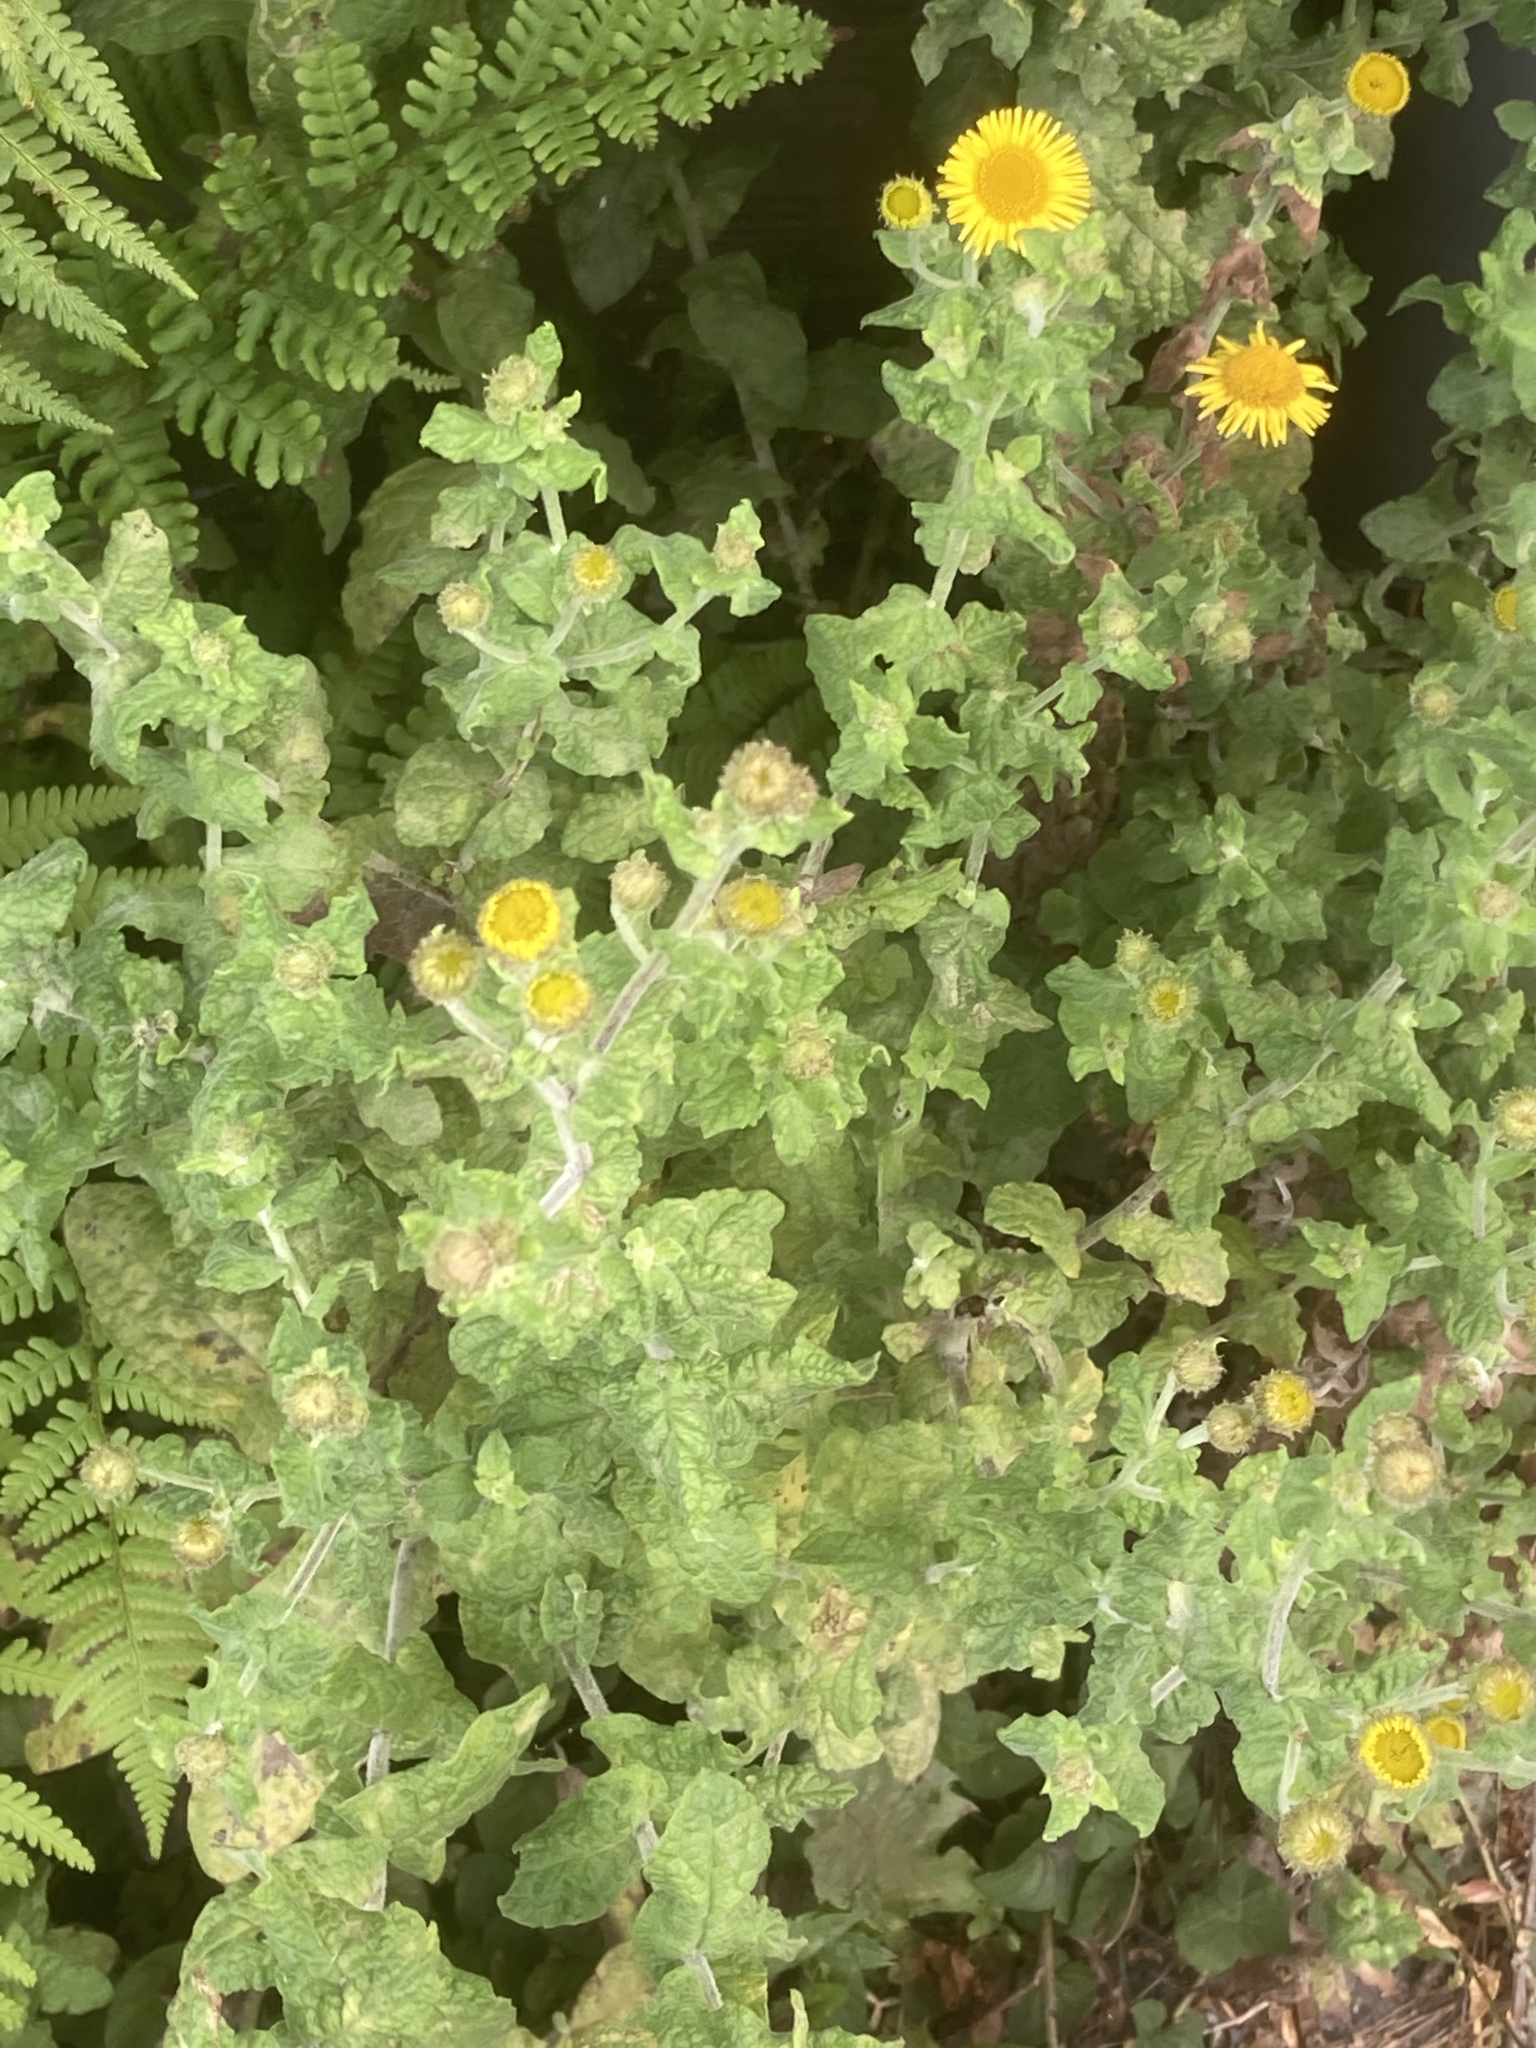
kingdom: Plantae
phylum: Tracheophyta
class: Magnoliopsida
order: Asterales
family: Asteraceae
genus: Pulicaria
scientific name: Pulicaria dysenterica
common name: Common fleabane
